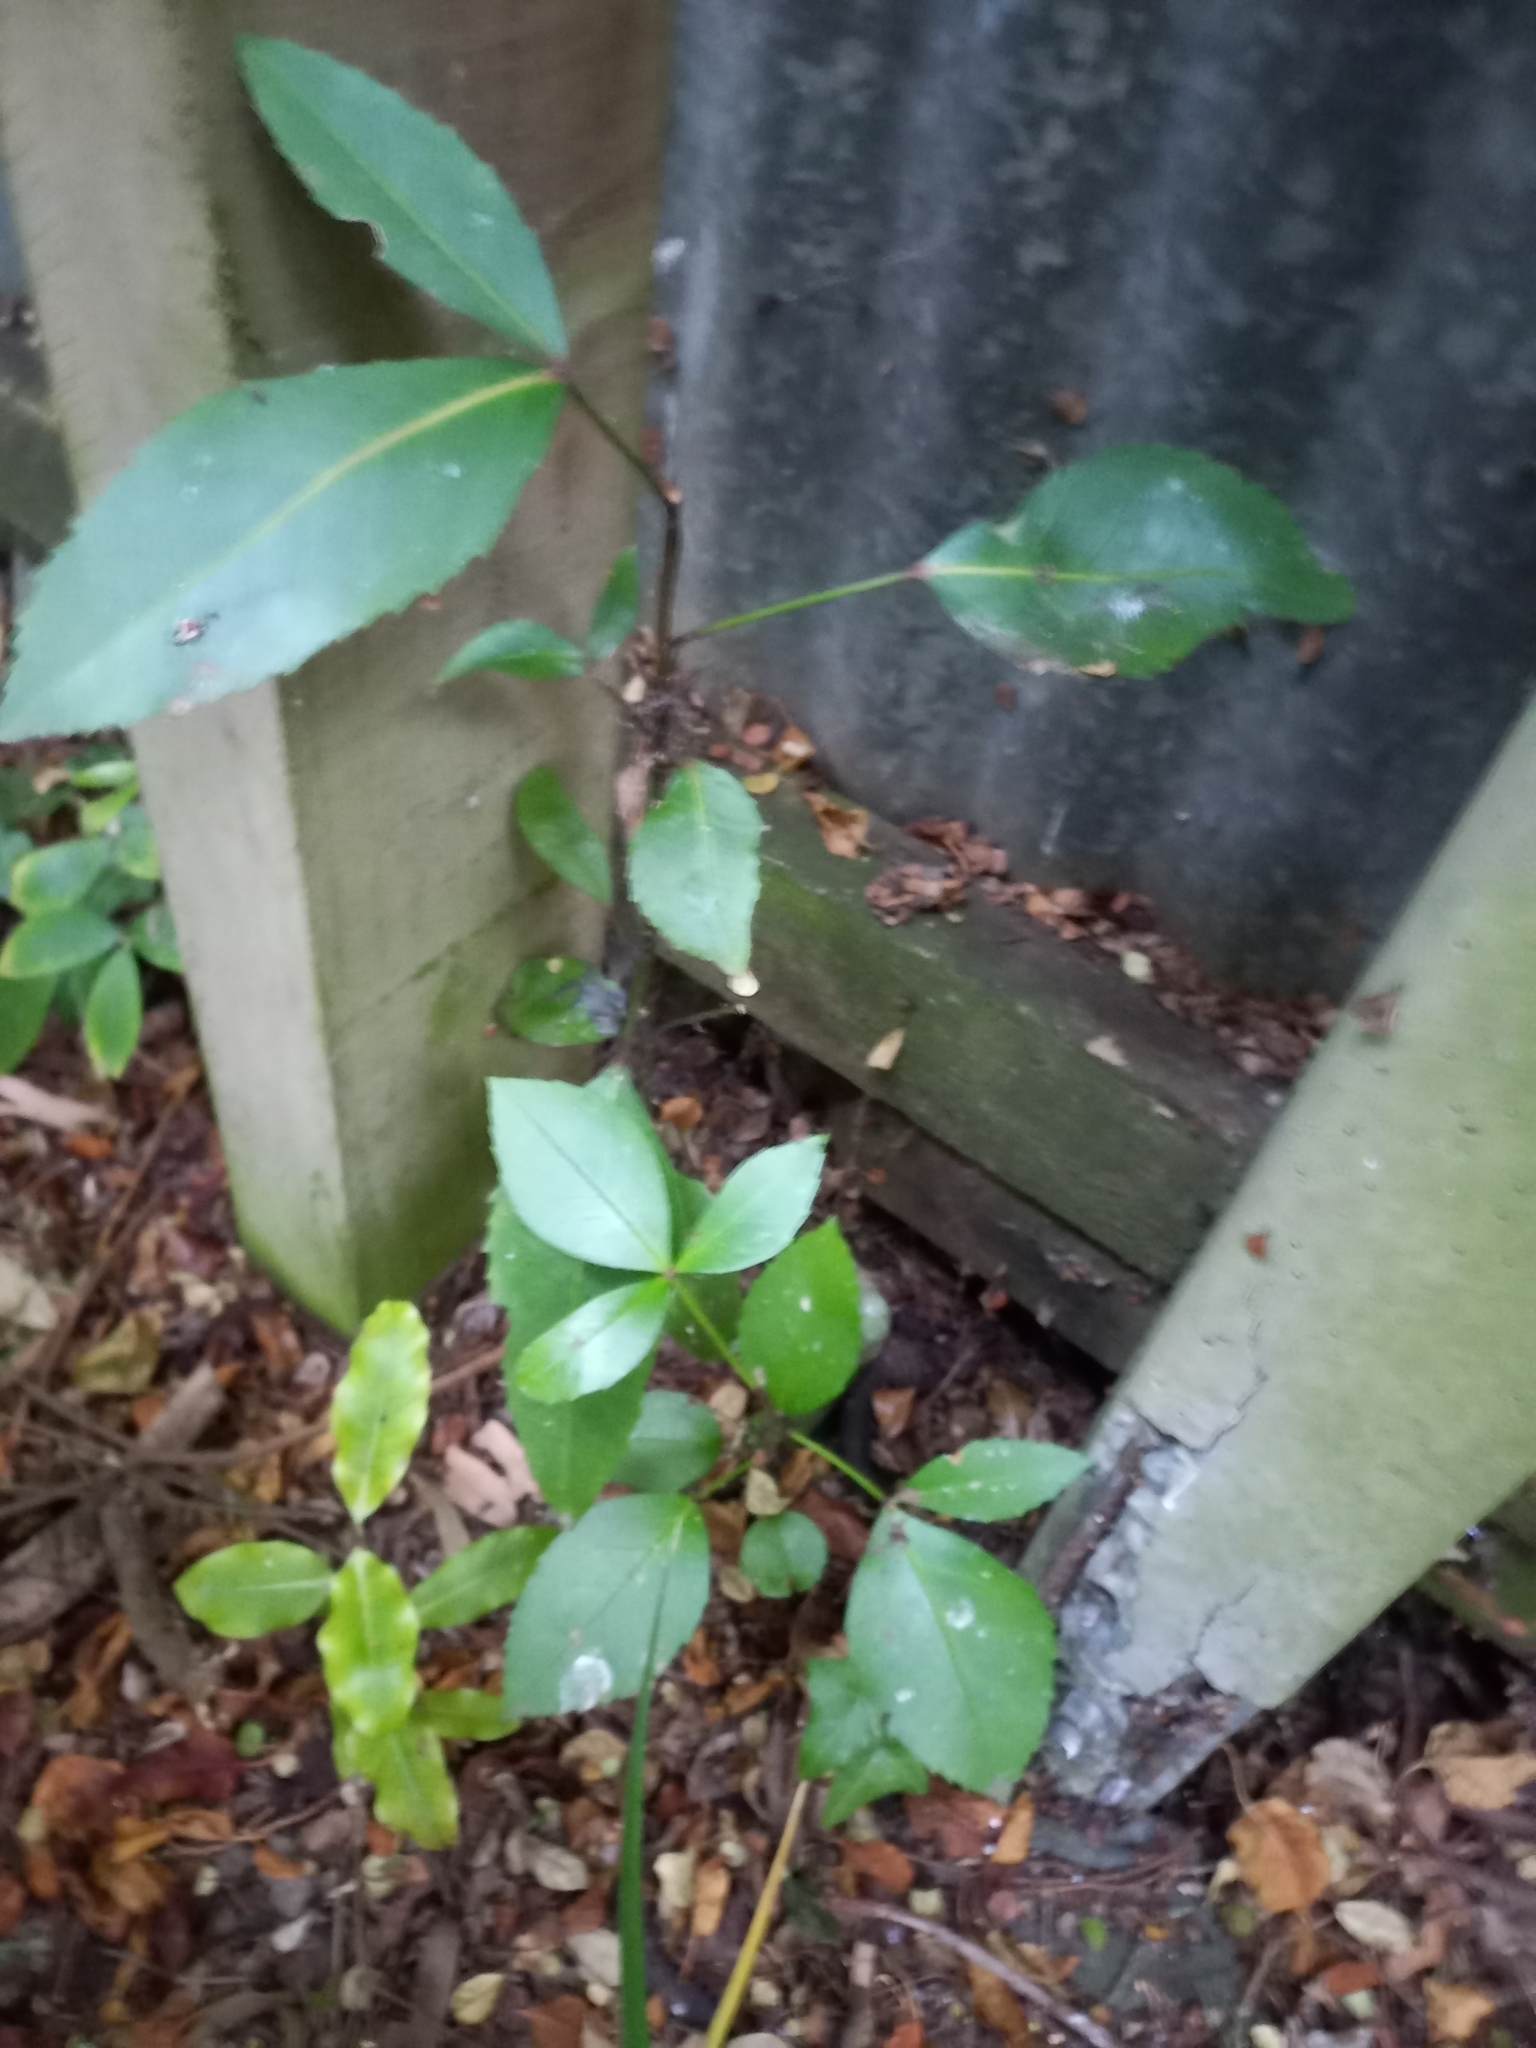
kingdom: Plantae
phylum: Tracheophyta
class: Magnoliopsida
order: Apiales
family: Araliaceae
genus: Pseudopanax
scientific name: Pseudopanax lessonii
